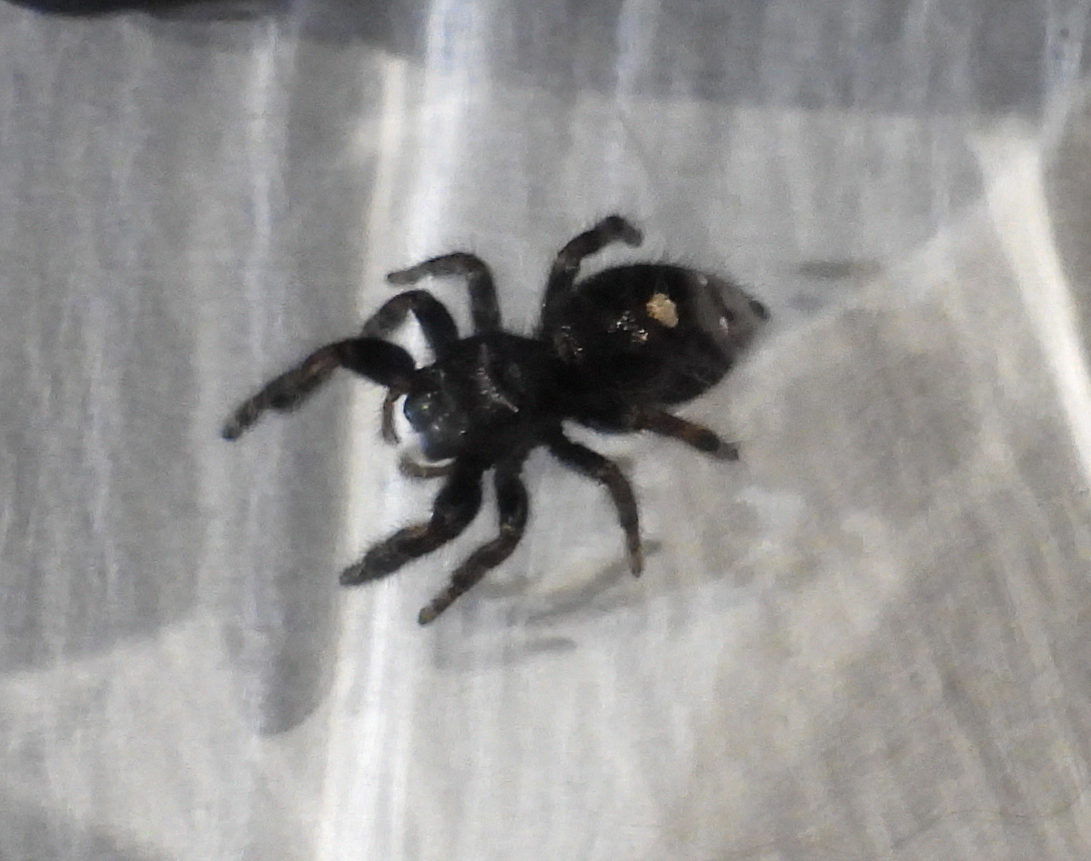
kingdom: Animalia
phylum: Arthropoda
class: Arachnida
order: Araneae
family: Salticidae
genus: Phidippus
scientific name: Phidippus audax
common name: Bold jumper
